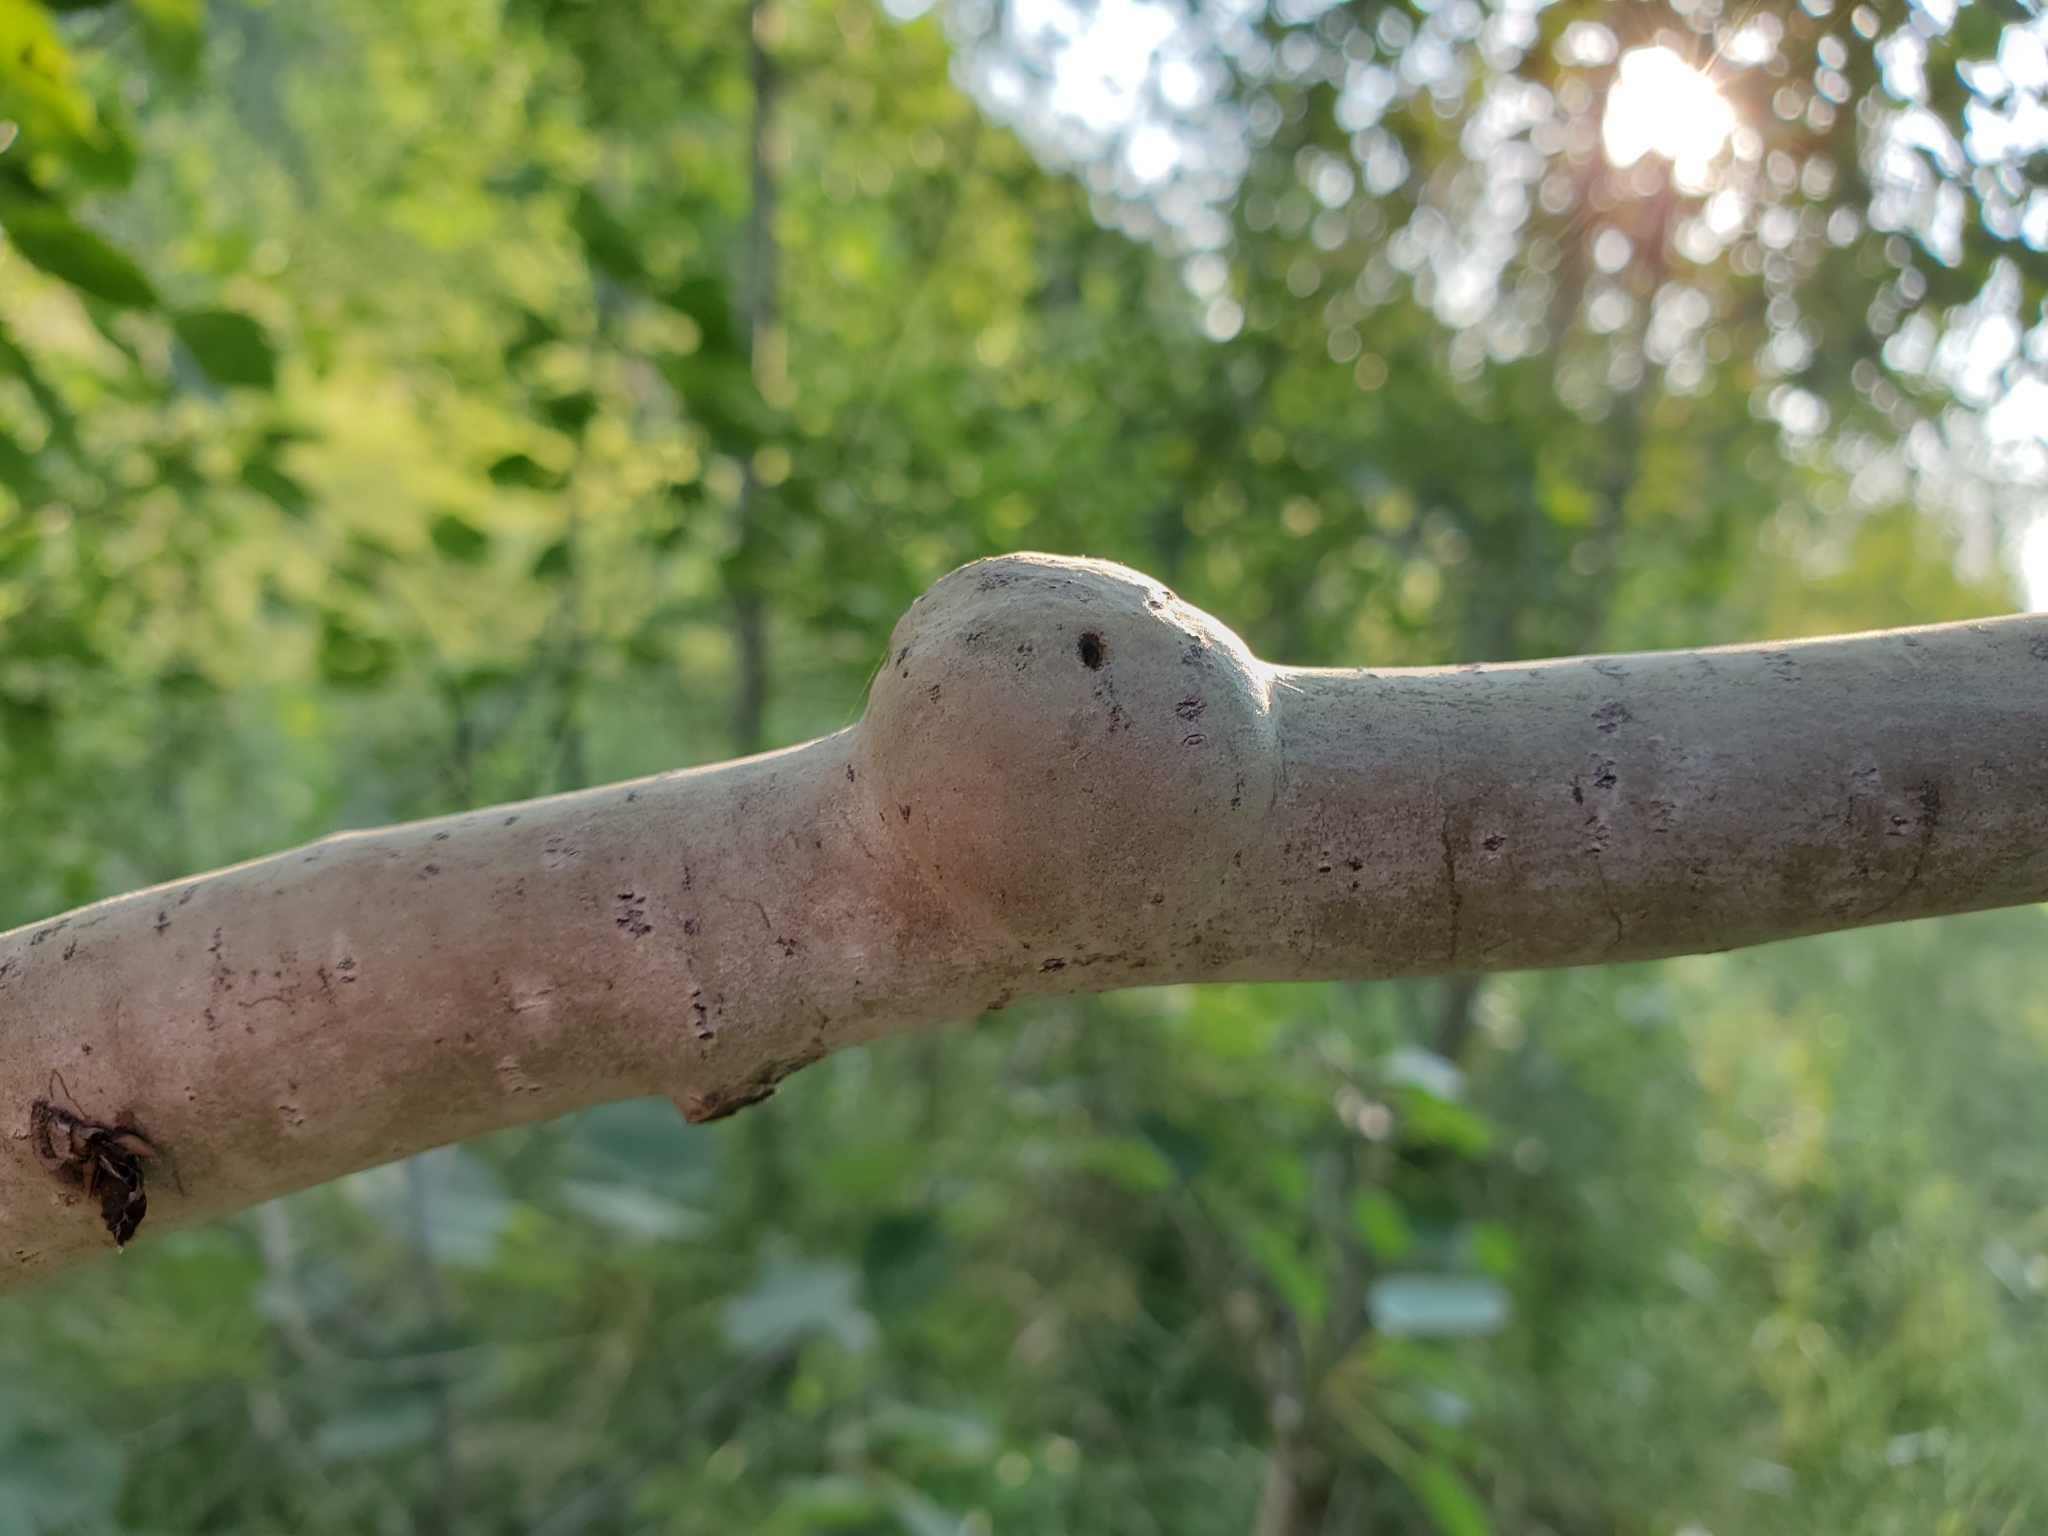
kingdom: Animalia
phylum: Arthropoda
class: Insecta
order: Diptera
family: Agromyzidae
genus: Euhexomyza
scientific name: Euhexomyza schineri
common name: Poplar twiggall fly
